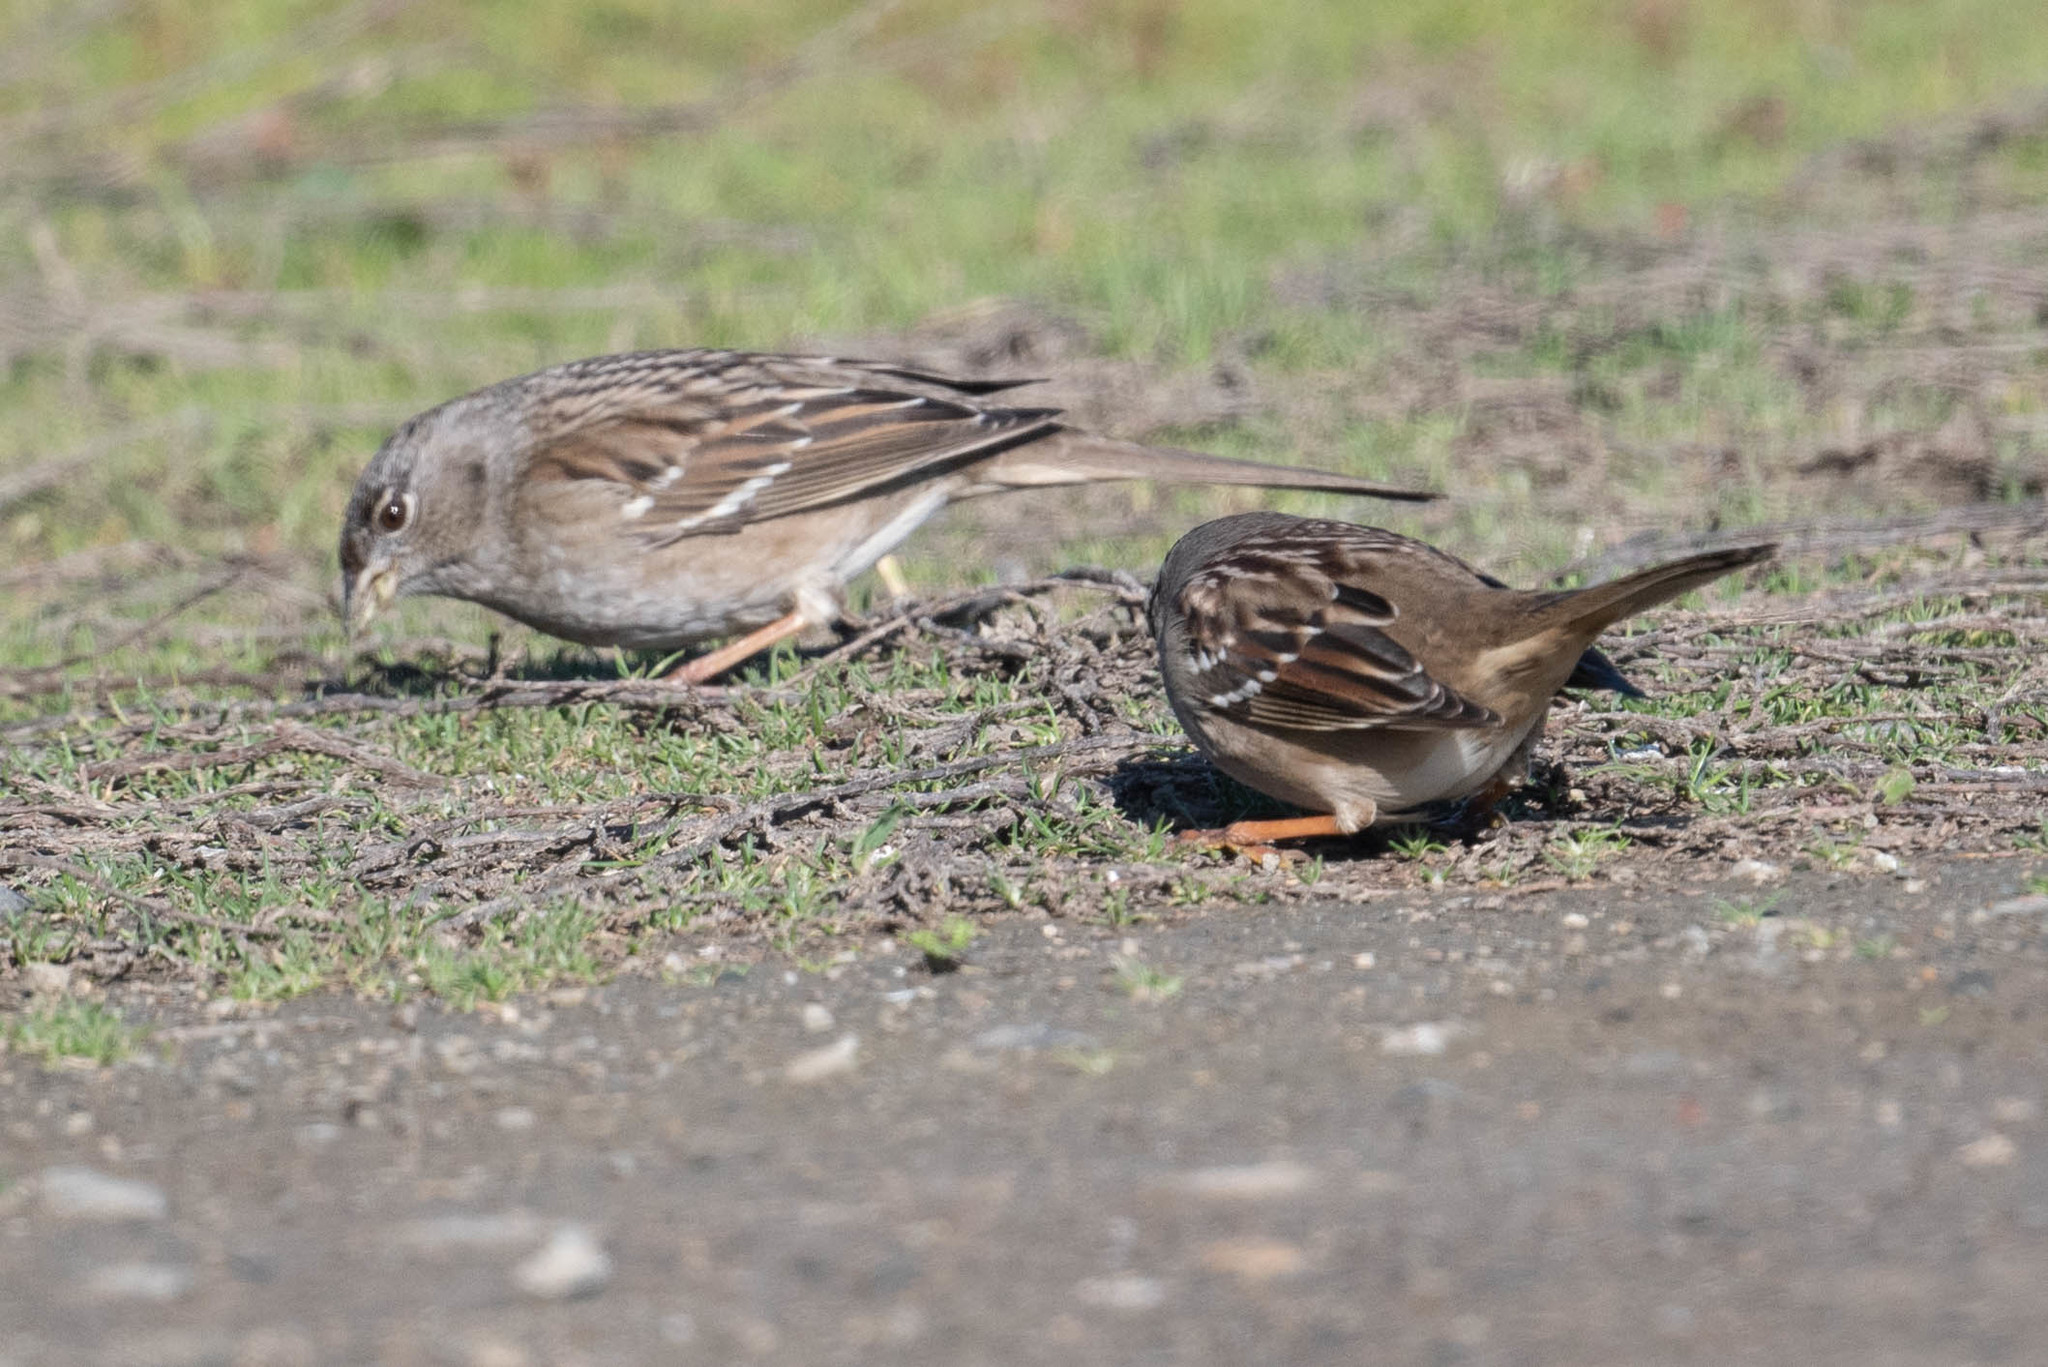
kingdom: Animalia
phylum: Chordata
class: Aves
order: Passeriformes
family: Passerellidae
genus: Zonotrichia
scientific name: Zonotrichia atricapilla
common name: Golden-crowned sparrow
